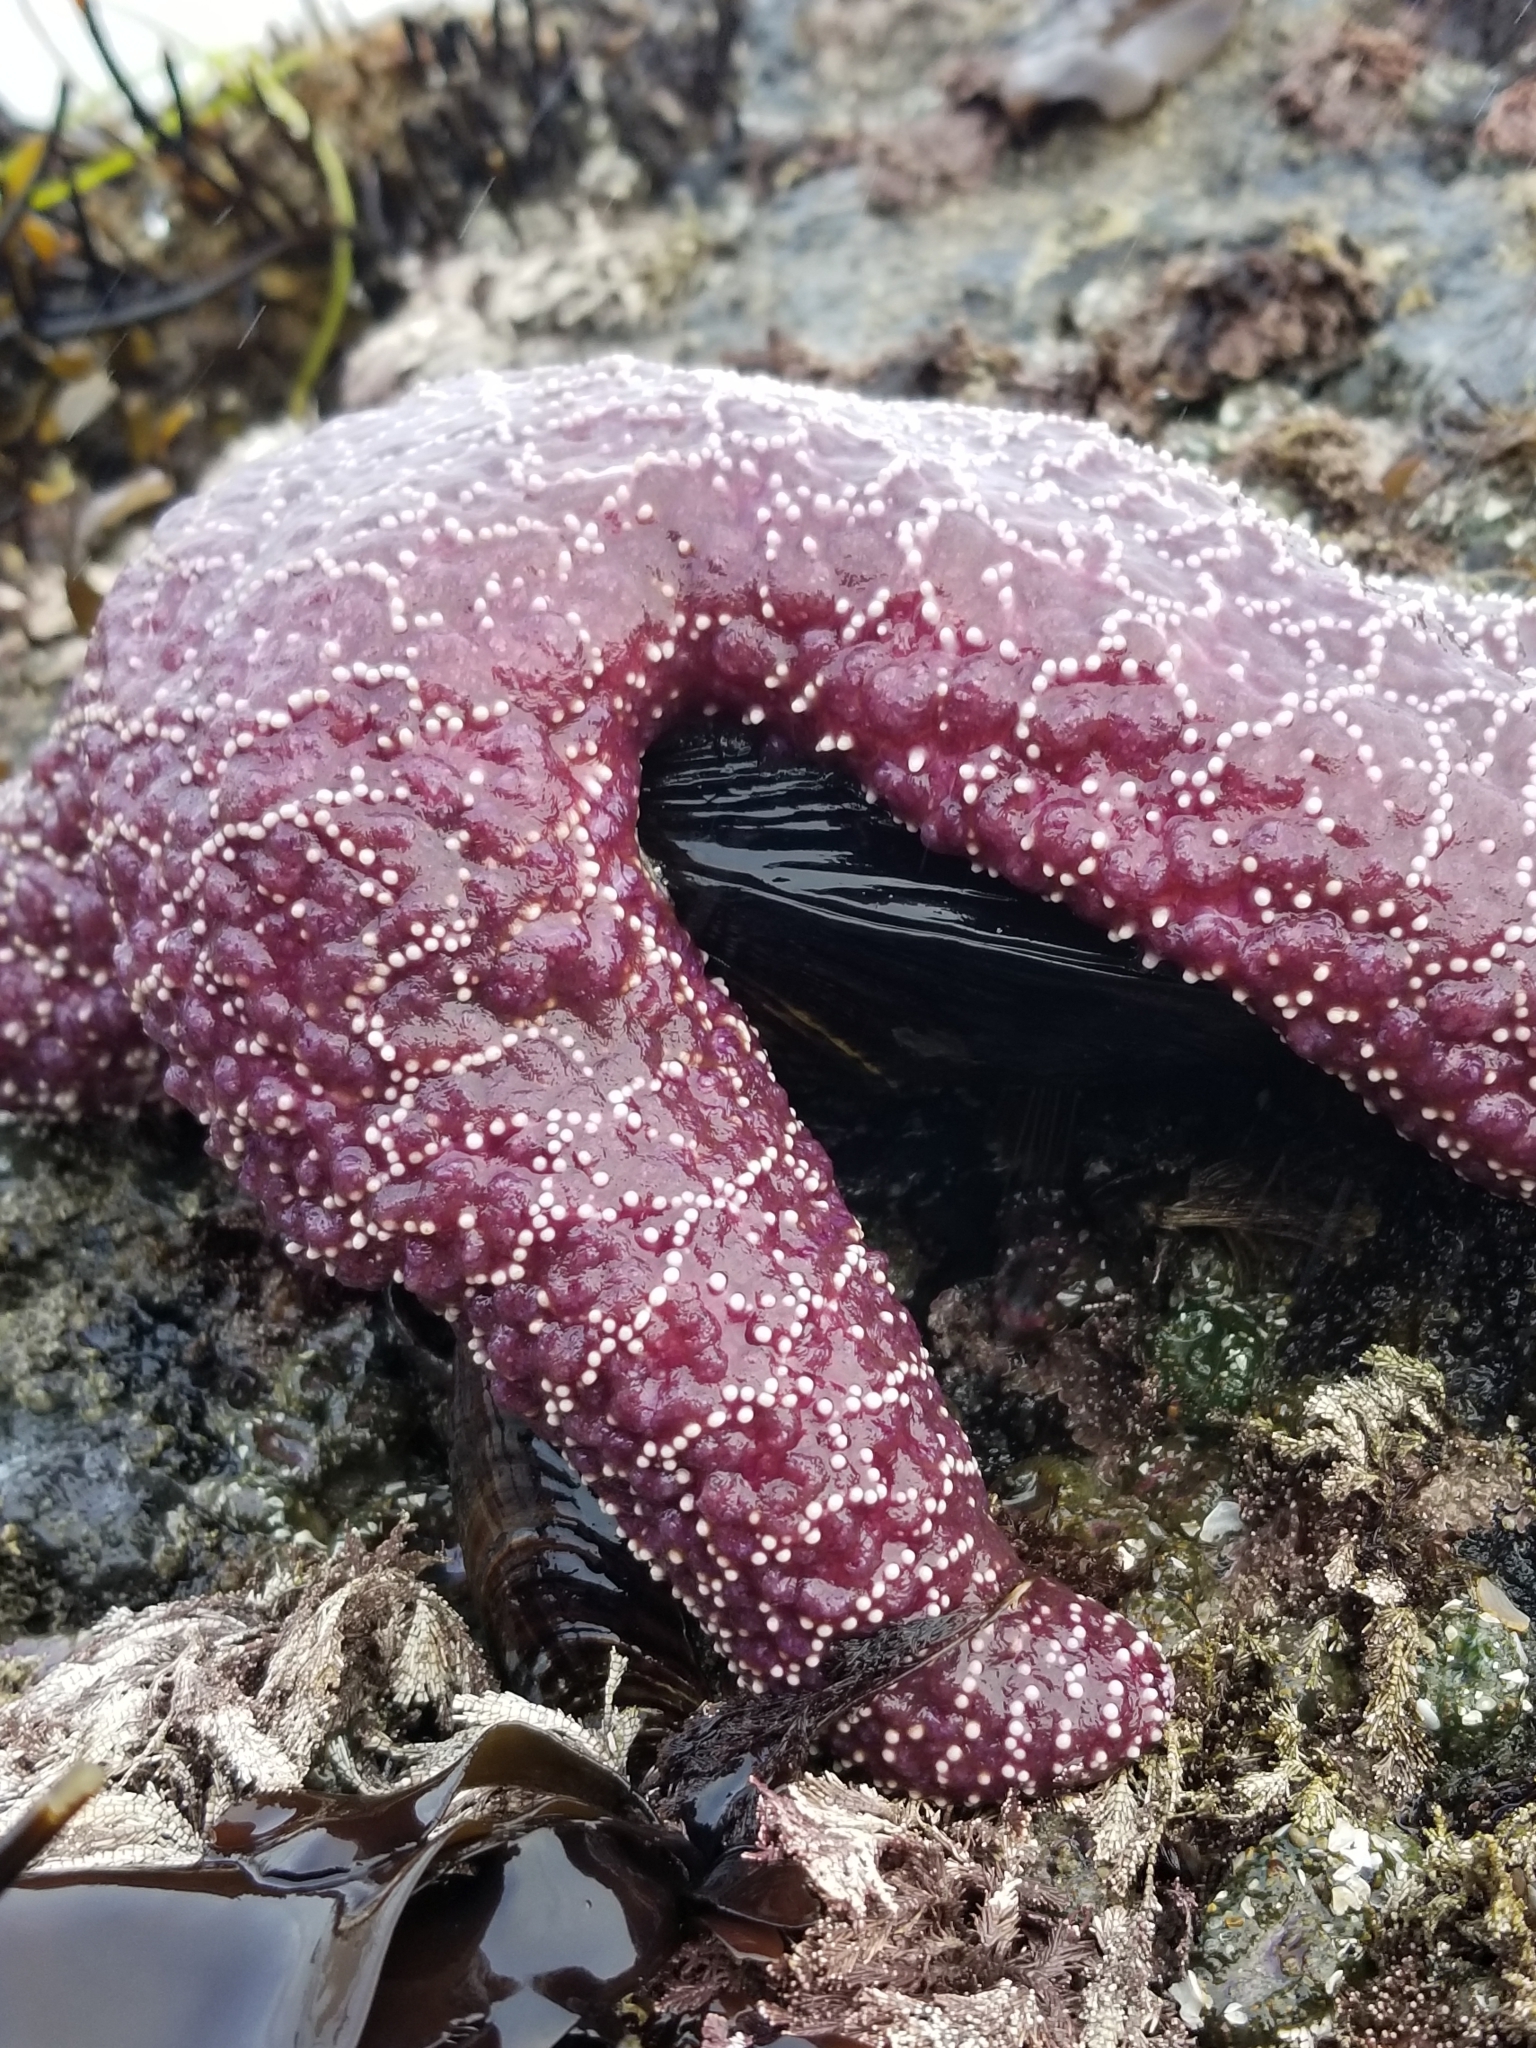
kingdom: Animalia
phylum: Echinodermata
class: Asteroidea
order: Forcipulatida
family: Asteriidae
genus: Pisaster
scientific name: Pisaster ochraceus
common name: Ochre stars
